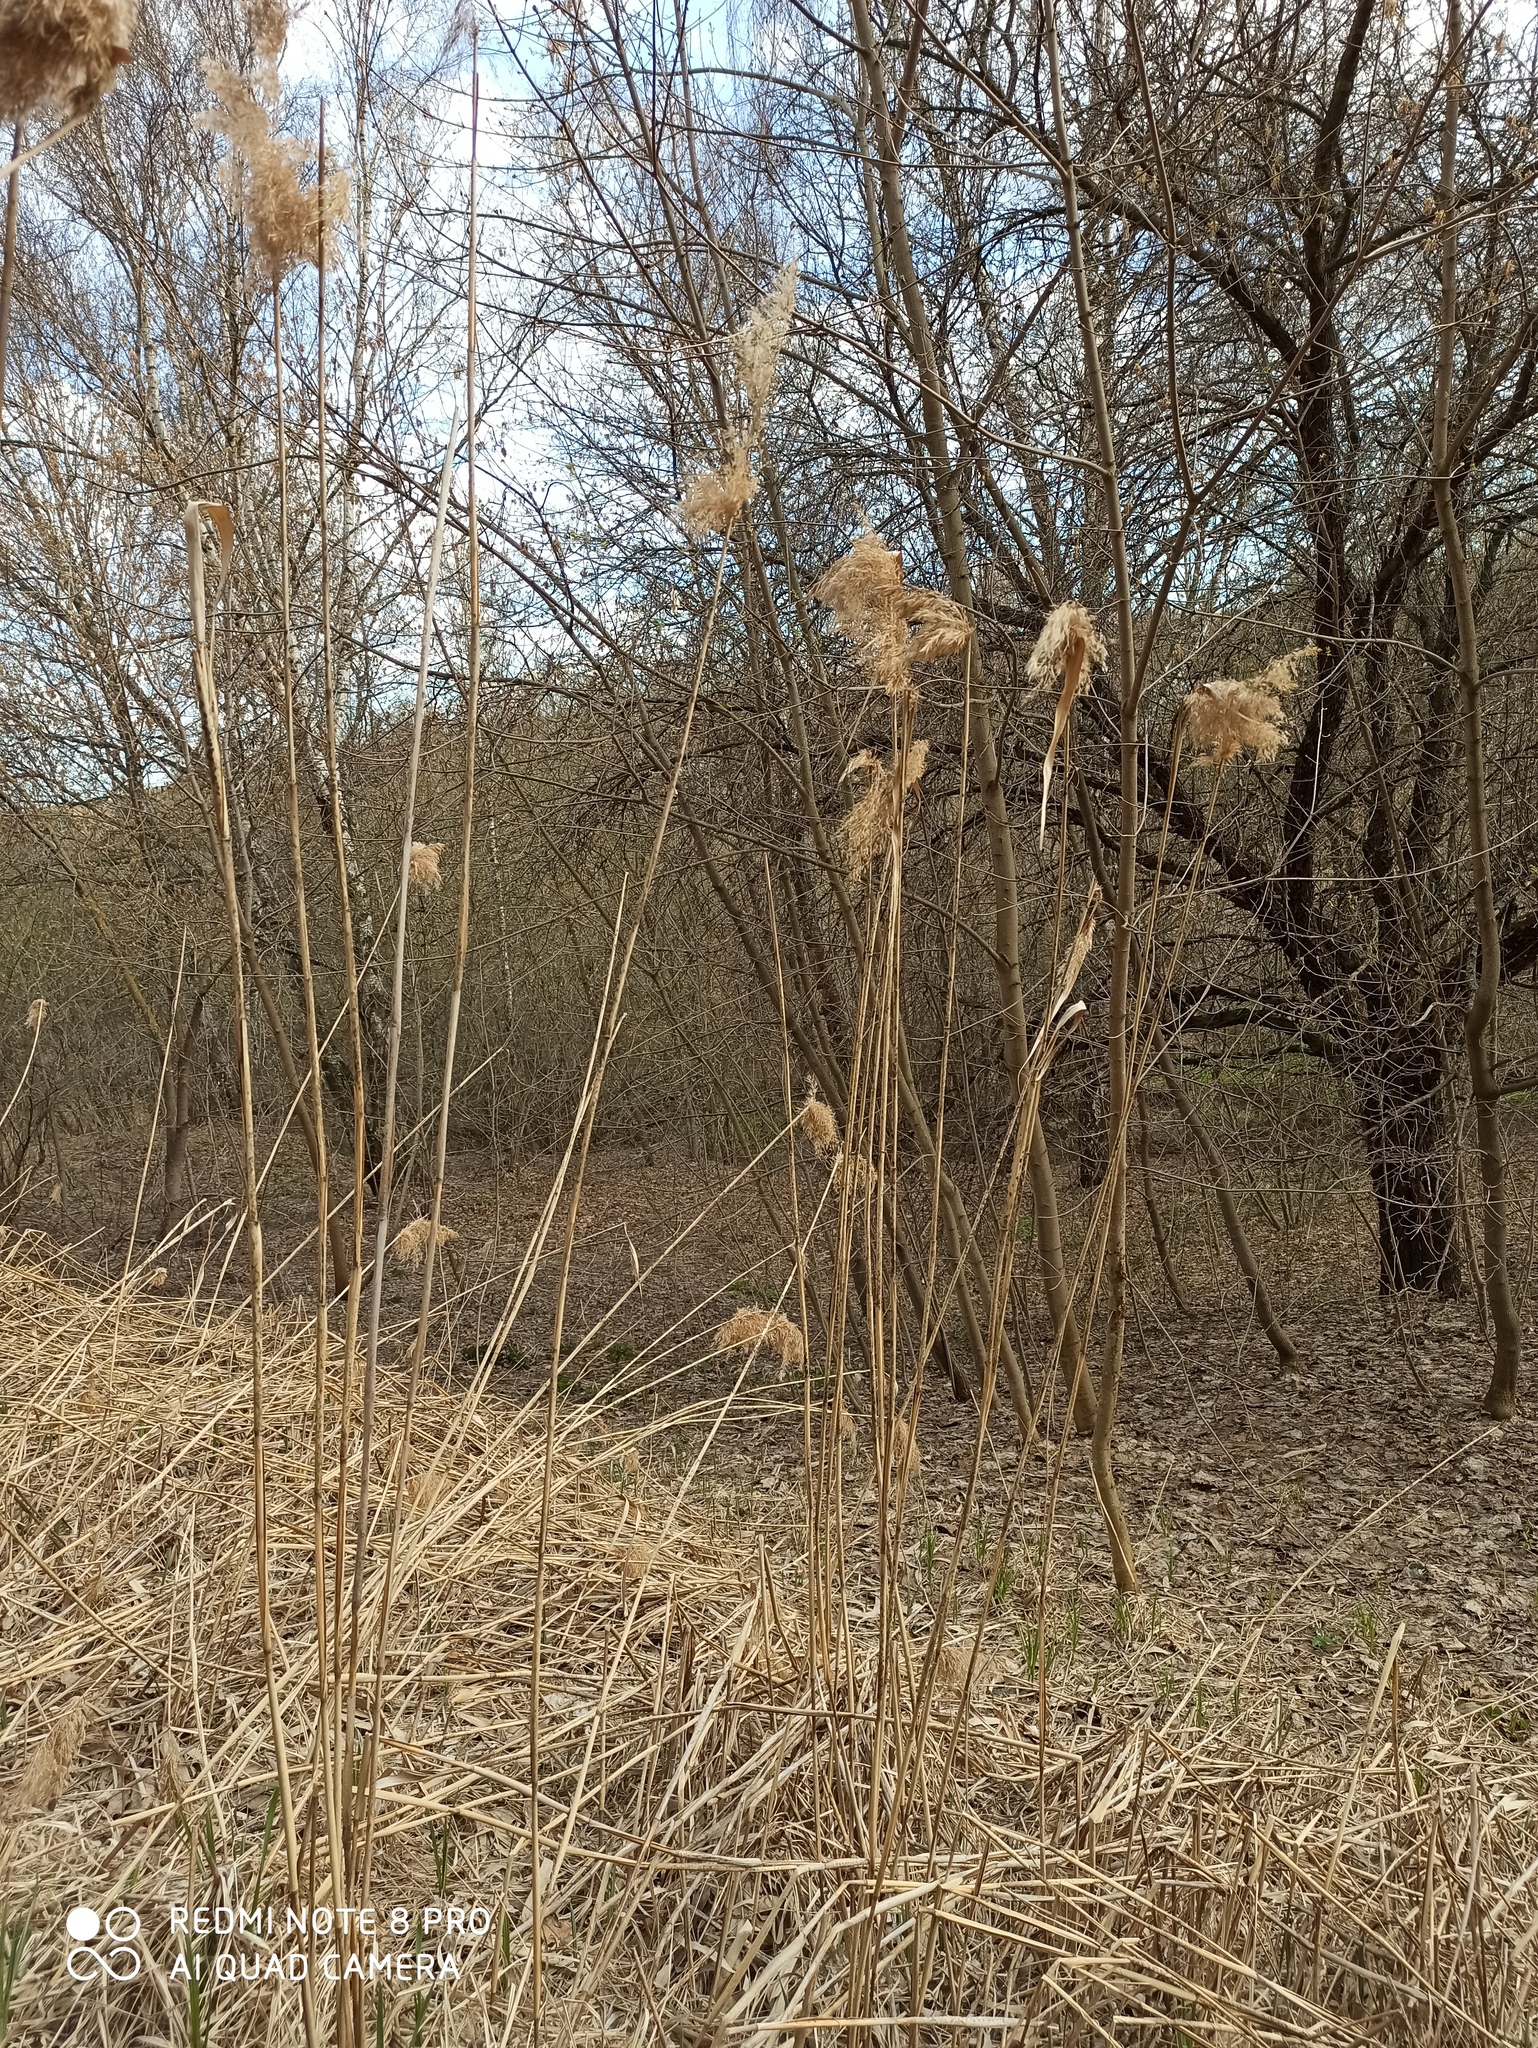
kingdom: Plantae
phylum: Tracheophyta
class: Liliopsida
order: Poales
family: Poaceae
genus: Phragmites
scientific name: Phragmites australis
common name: Common reed
